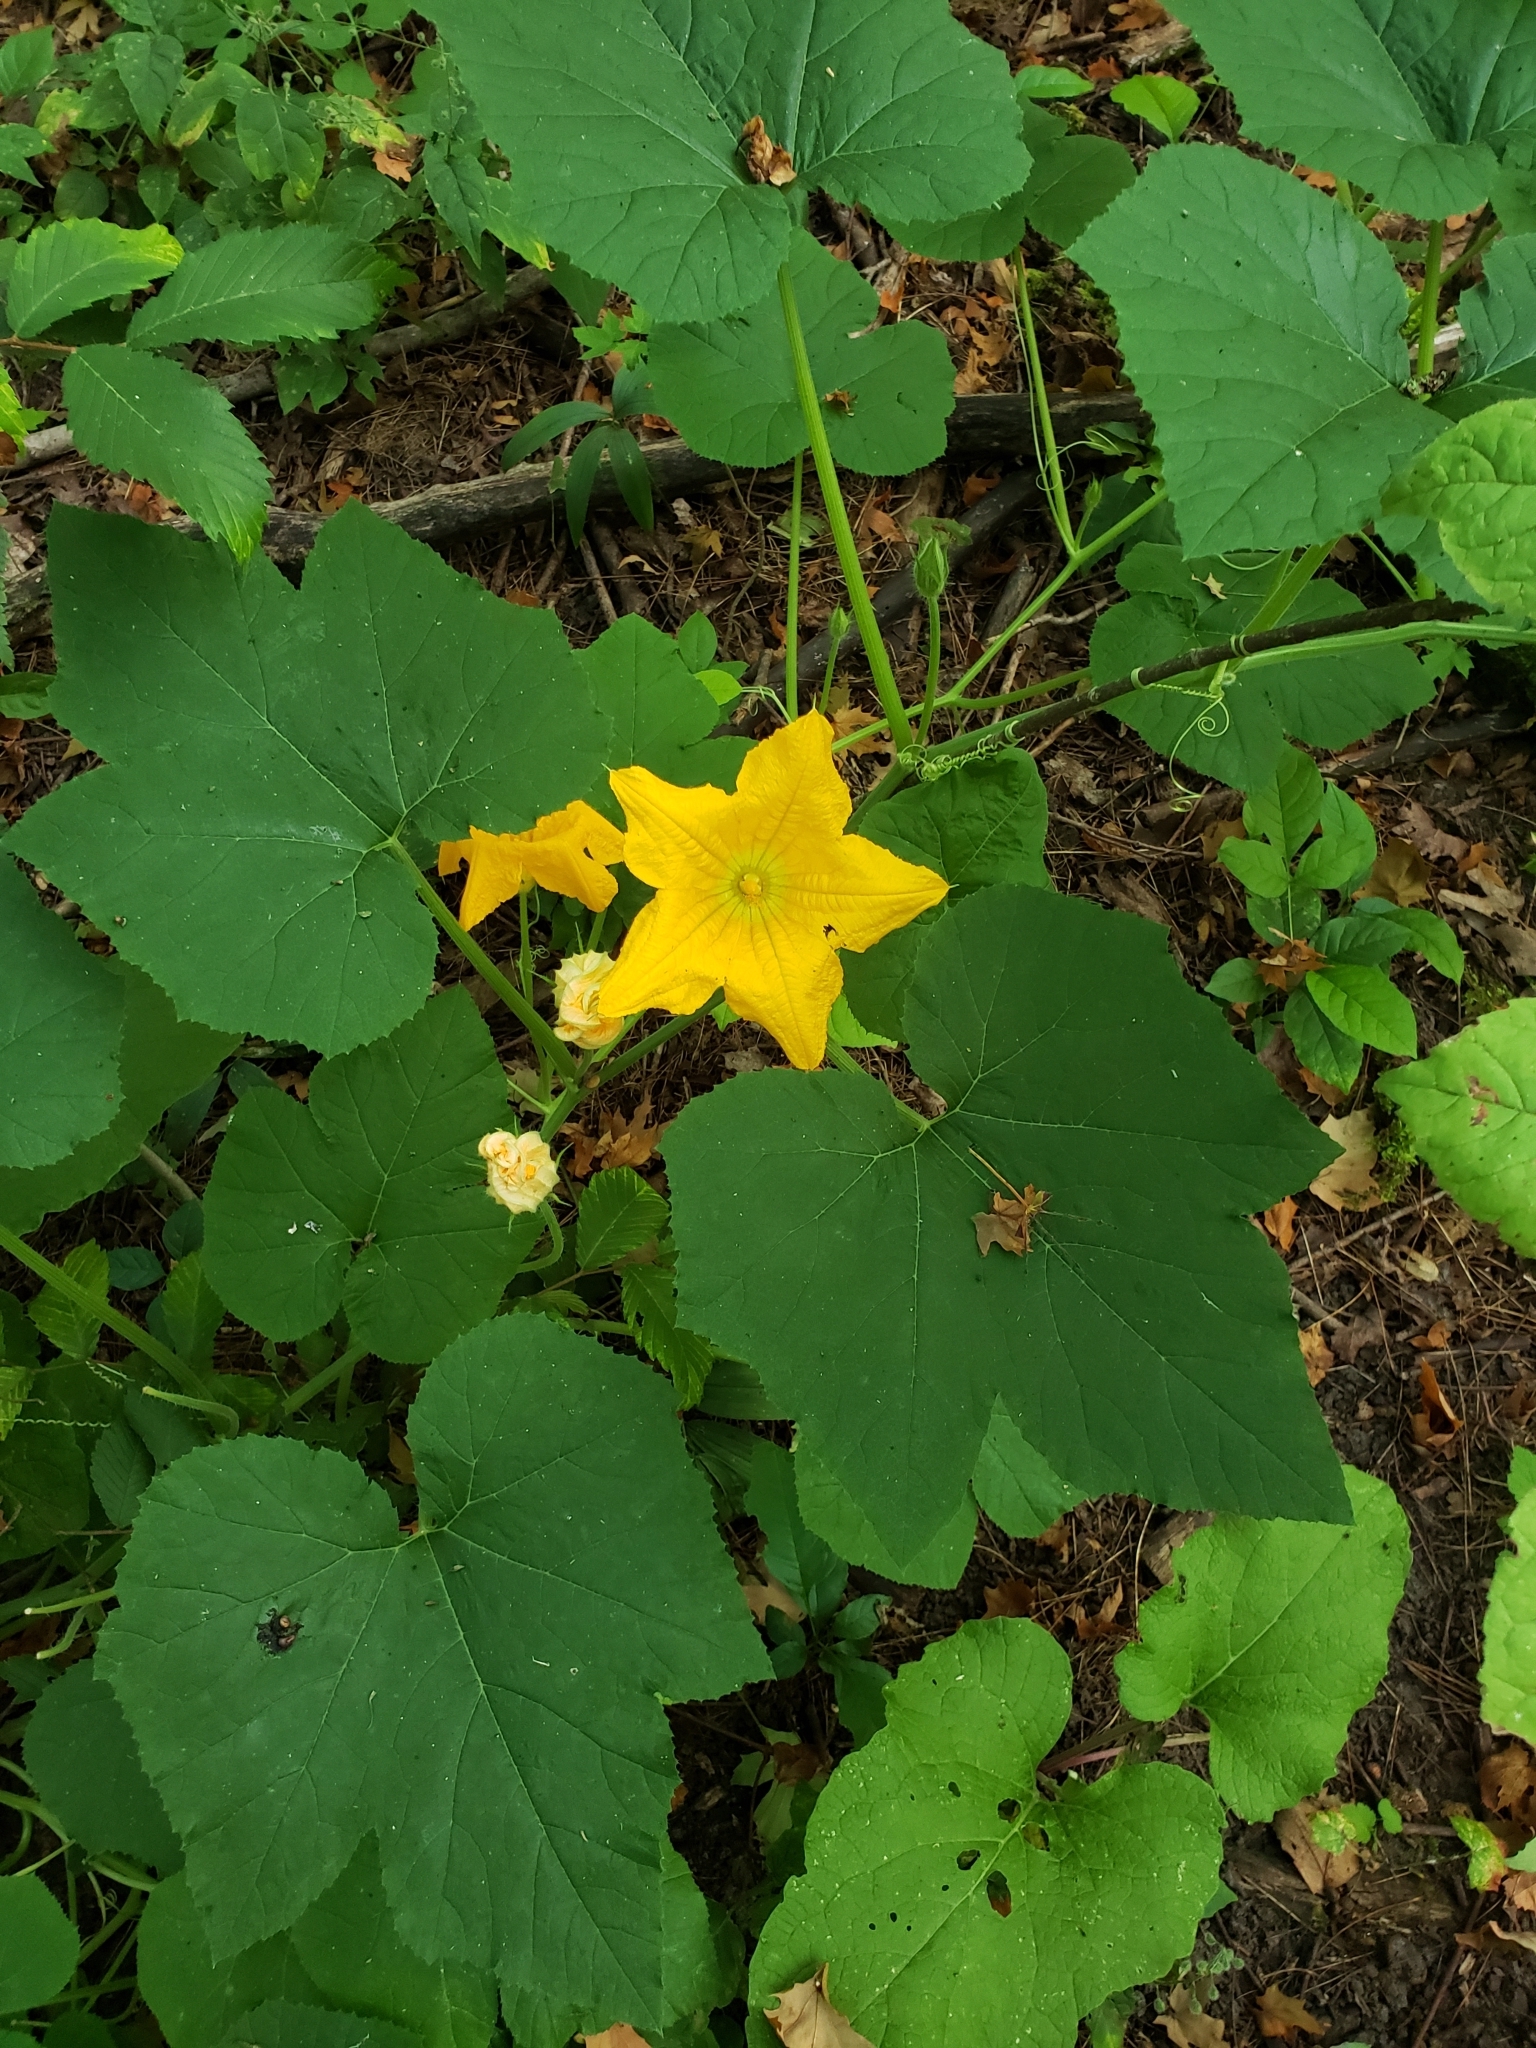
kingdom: Plantae
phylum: Tracheophyta
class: Magnoliopsida
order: Cucurbitales
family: Cucurbitaceae
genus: Cucurbita
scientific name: Cucurbita pepo
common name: Marrow
